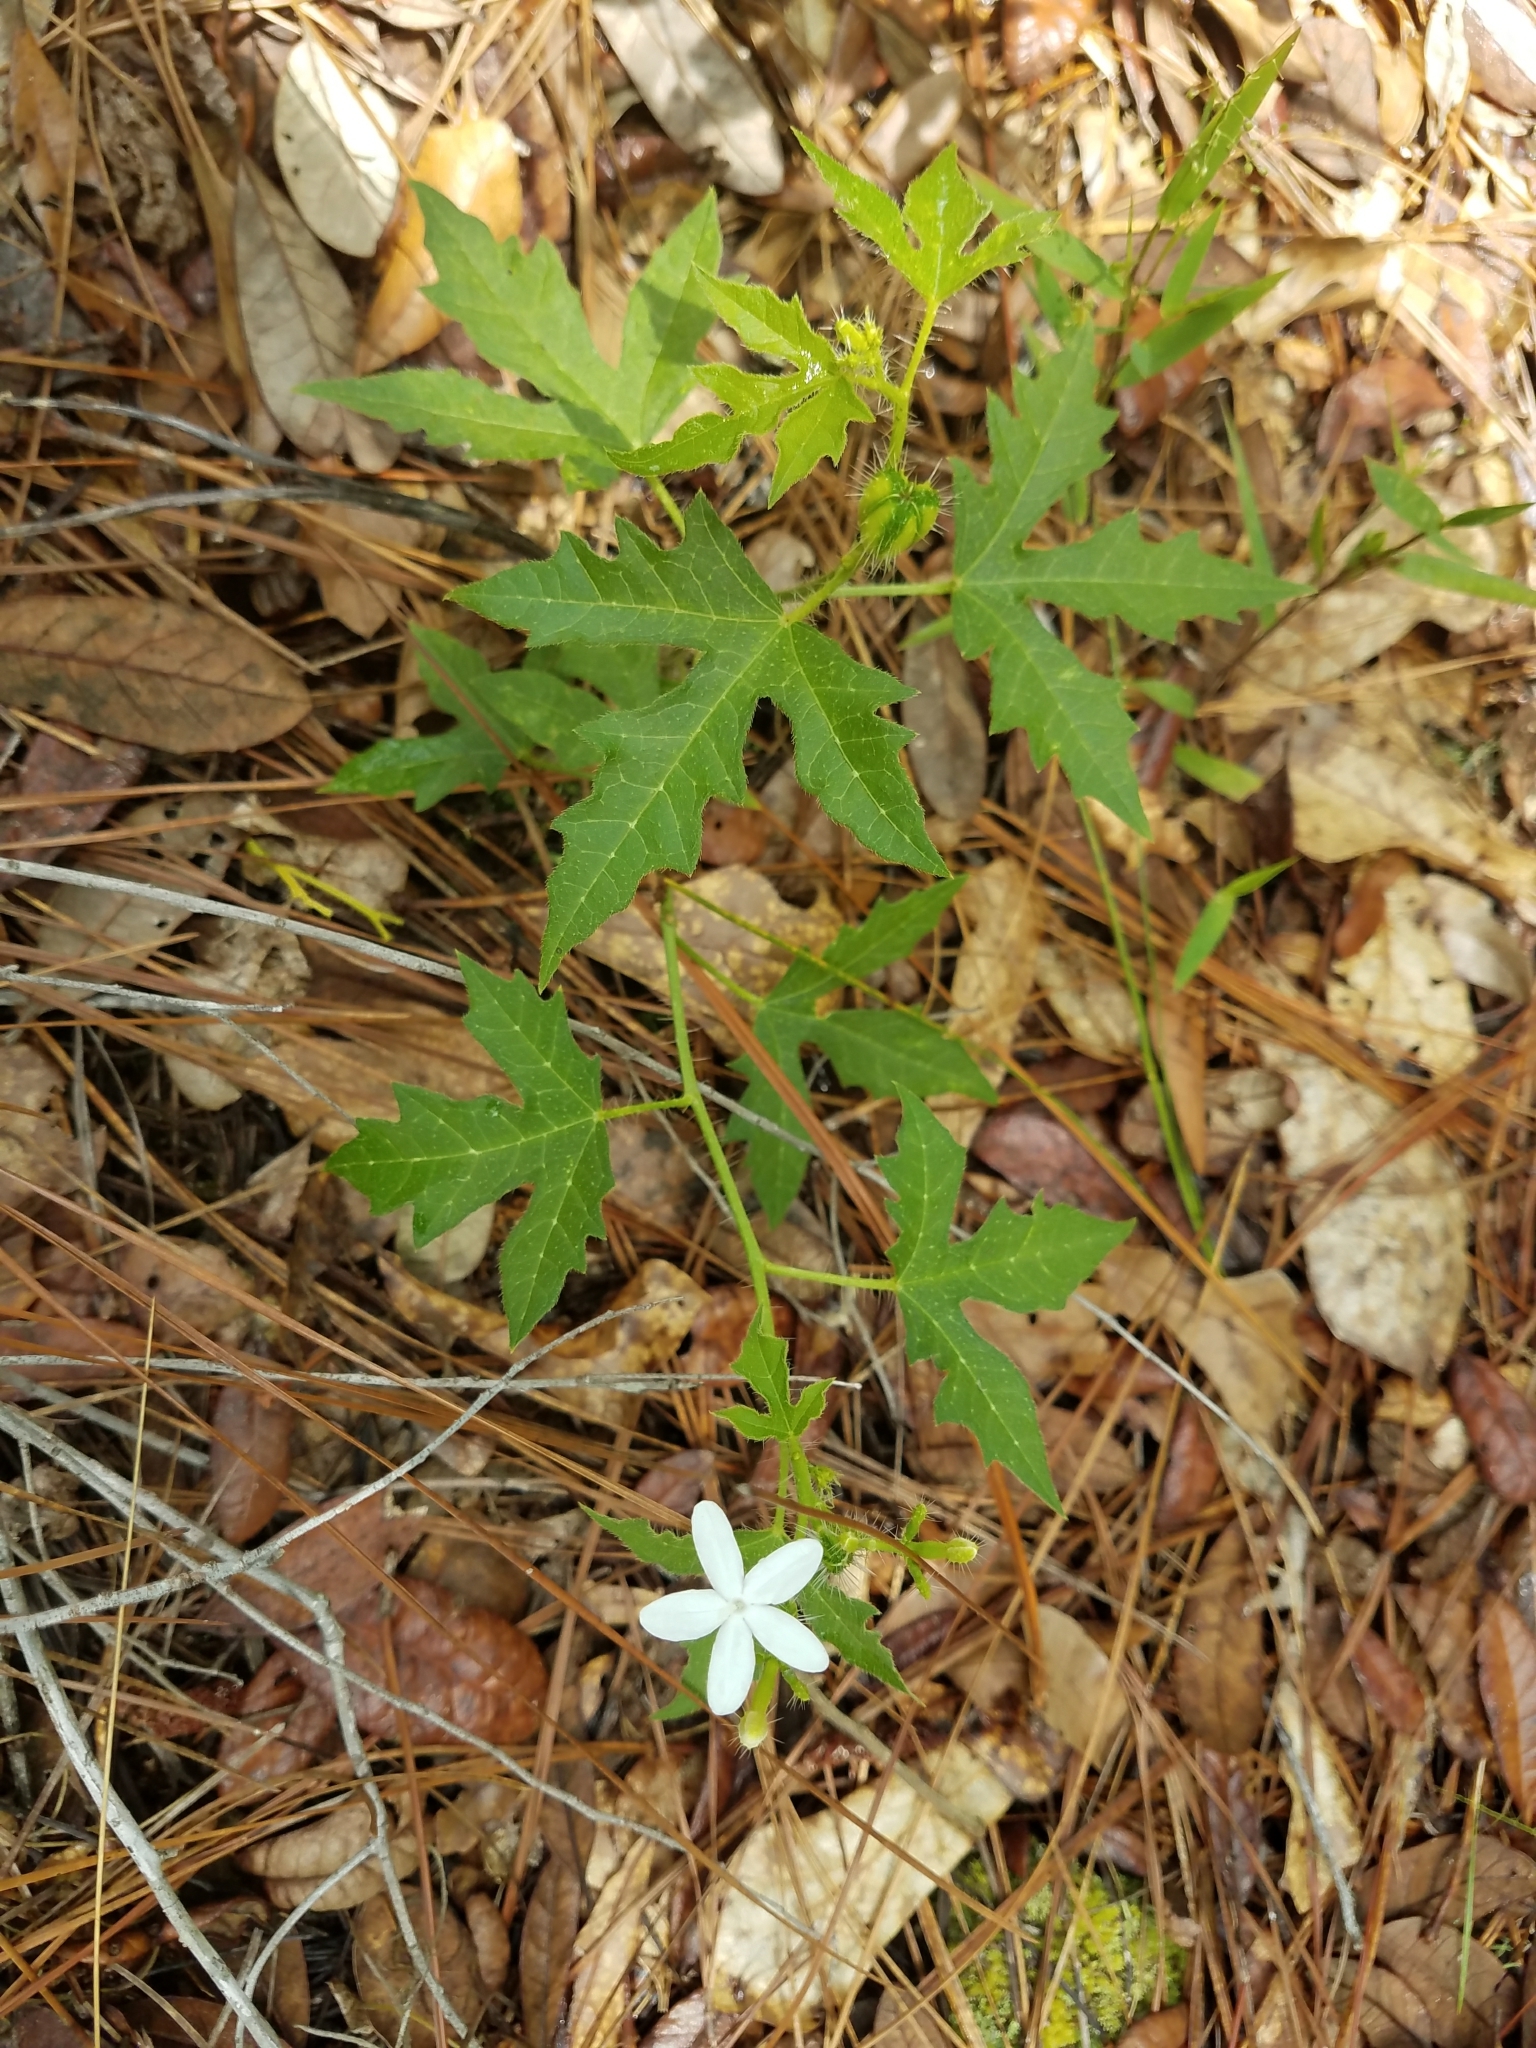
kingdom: Plantae
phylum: Tracheophyta
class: Magnoliopsida
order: Malpighiales
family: Euphorbiaceae
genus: Cnidoscolus
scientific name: Cnidoscolus stimulosus
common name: Bull-nettle
